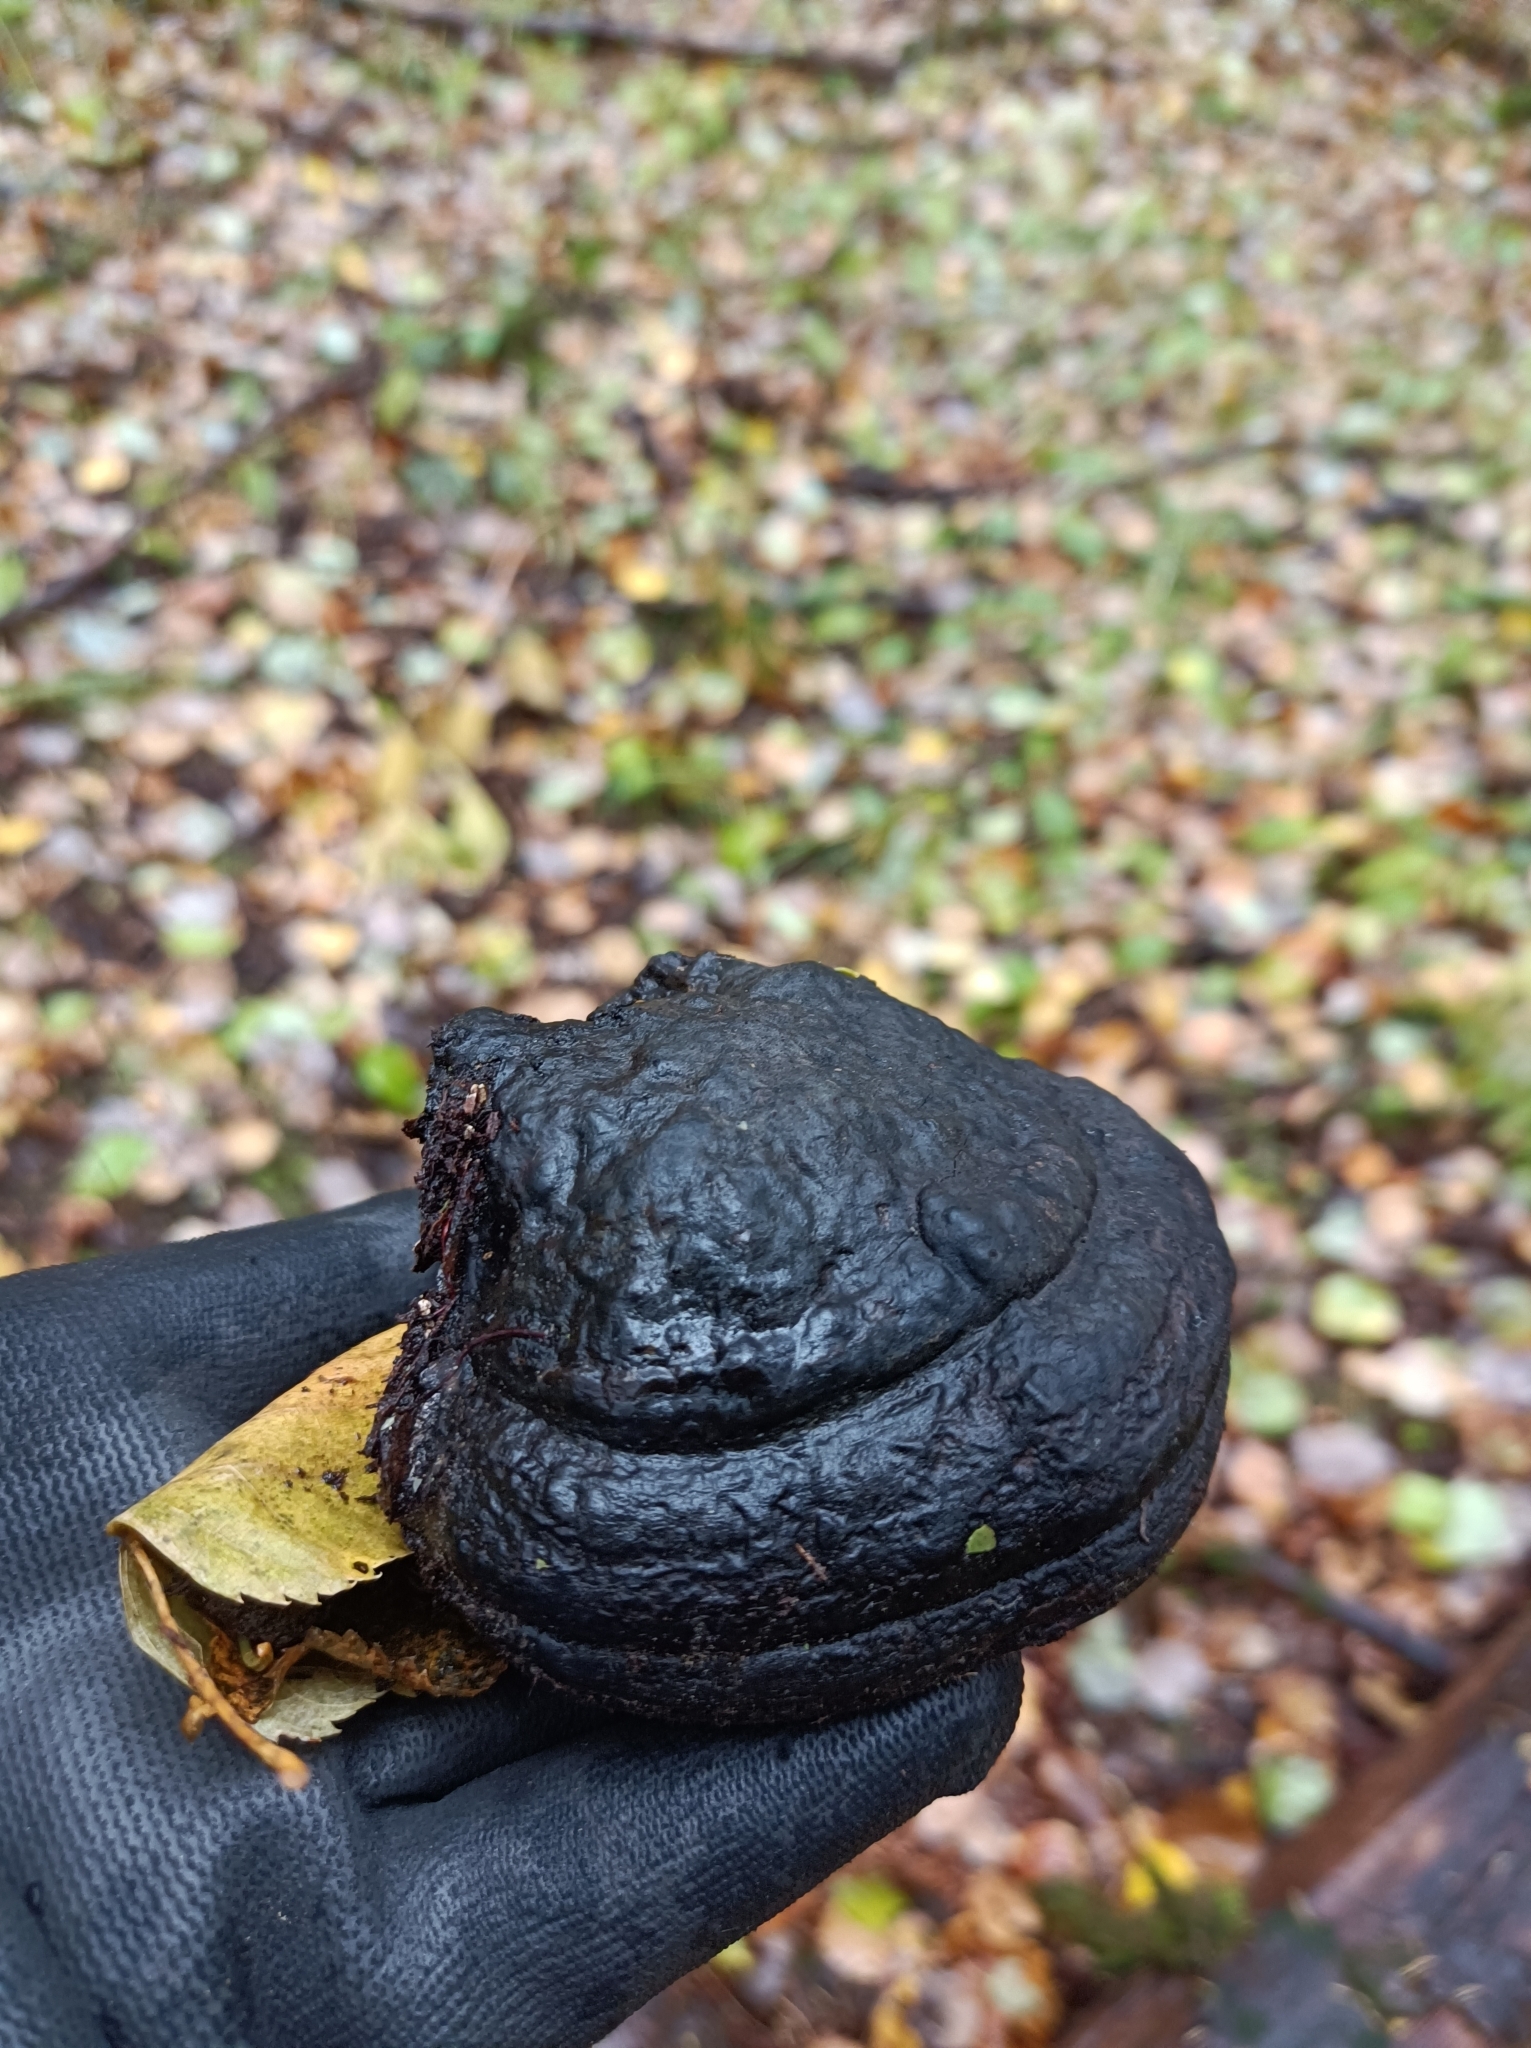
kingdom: Fungi
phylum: Basidiomycota
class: Agaricomycetes
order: Polyporales
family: Polyporaceae
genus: Fomes
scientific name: Fomes fomentarius
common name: Hoof fungus
